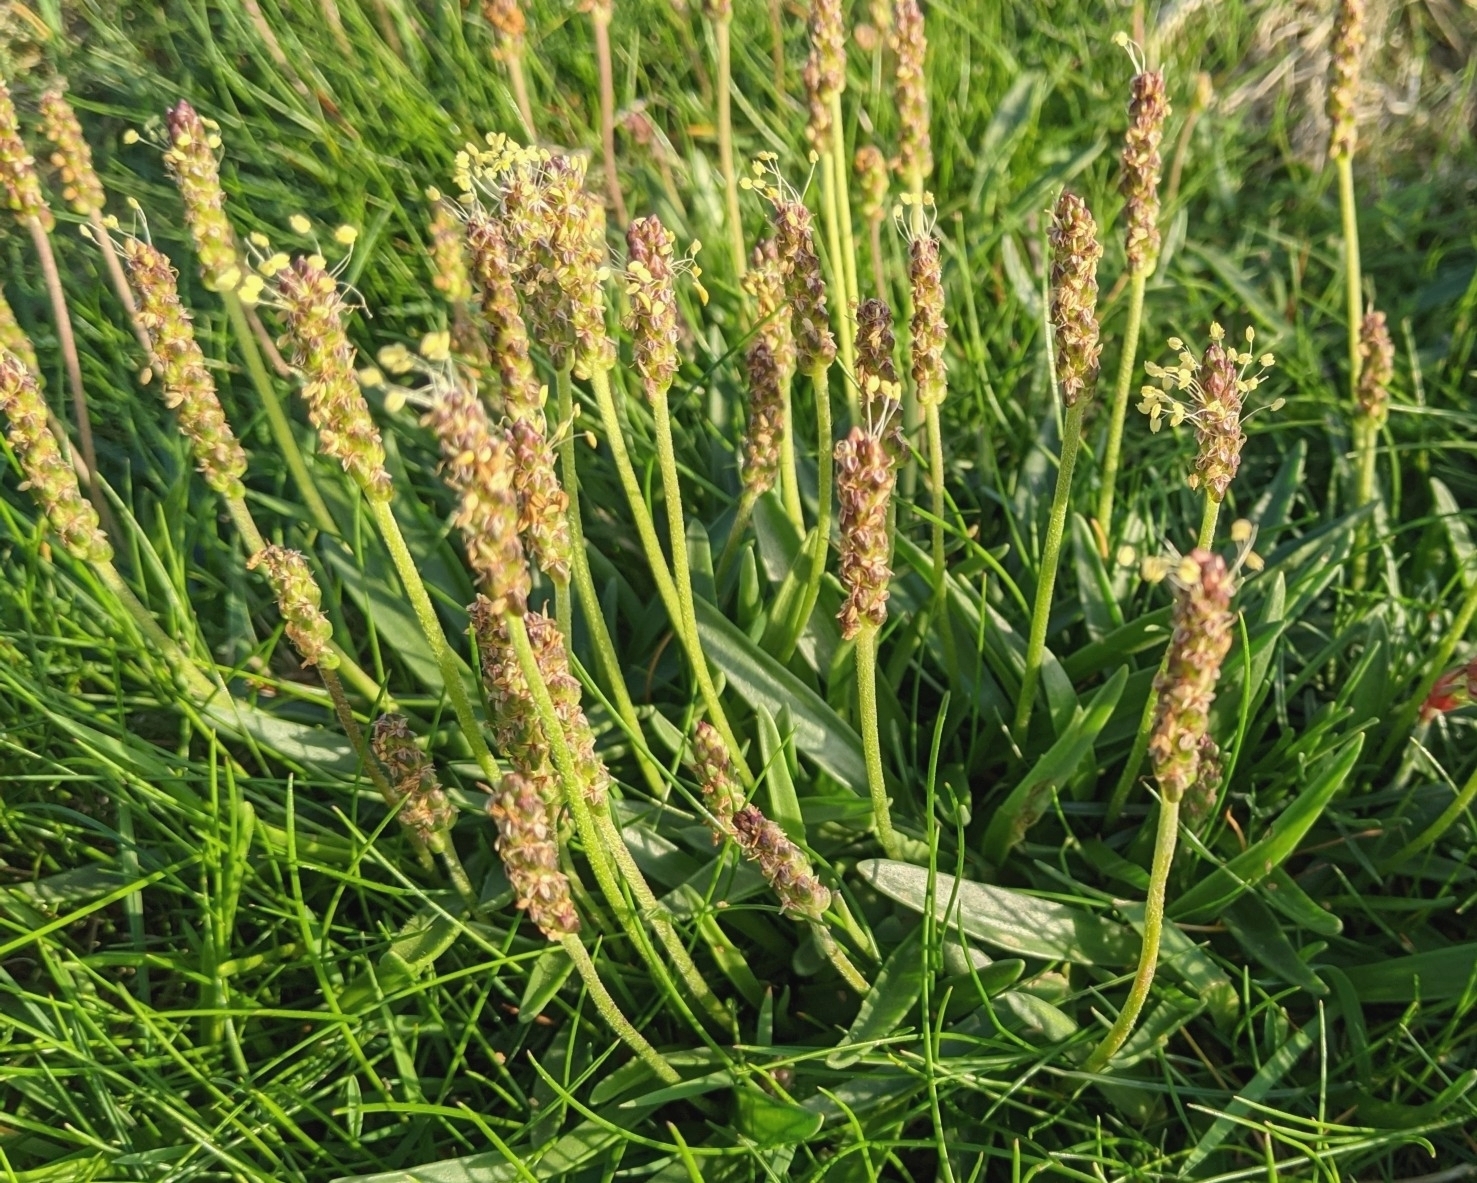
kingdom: Plantae
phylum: Tracheophyta
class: Magnoliopsida
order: Lamiales
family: Plantaginaceae
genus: Plantago
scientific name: Plantago maritima
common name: Sea plantain
